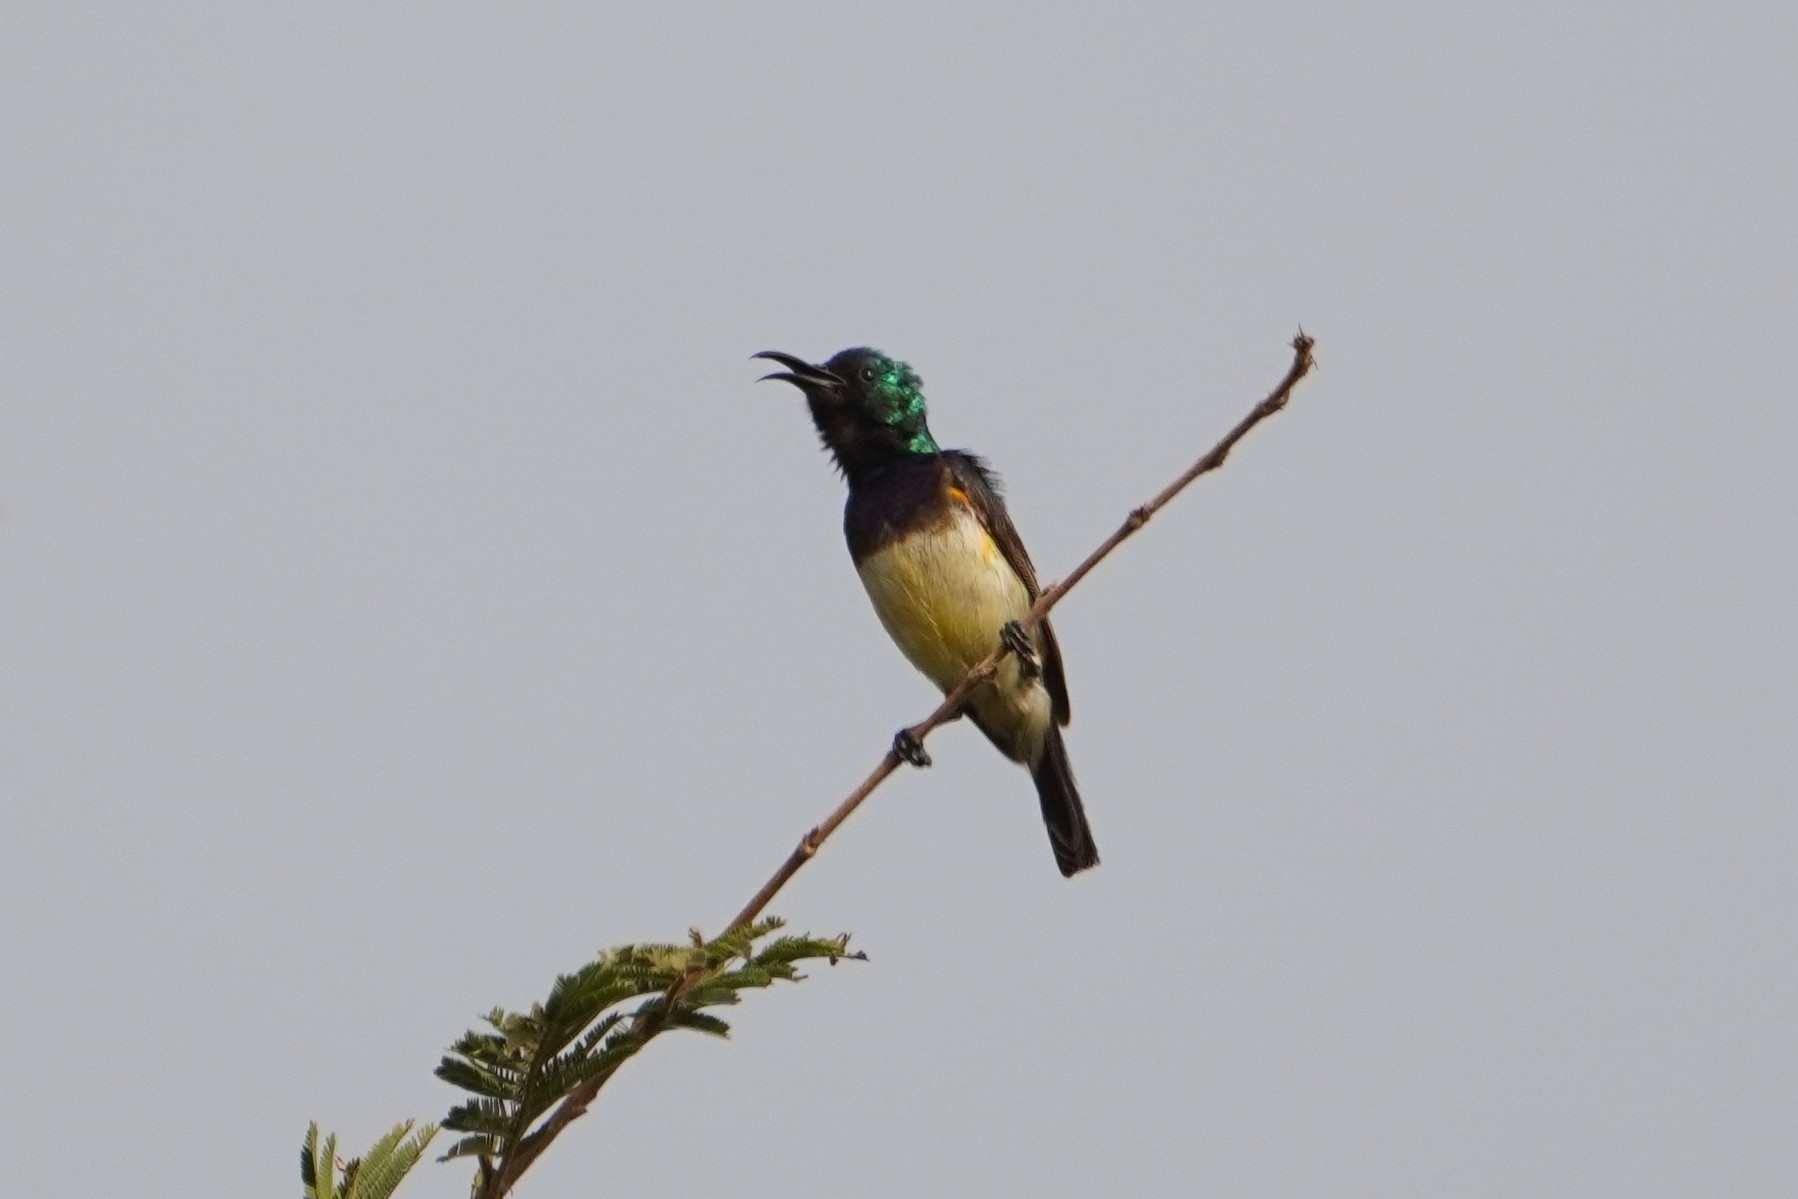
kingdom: Animalia
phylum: Chordata
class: Aves
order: Passeriformes
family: Nectariniidae
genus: Cinnyris
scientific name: Cinnyris venustus
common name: Variable sunbird
